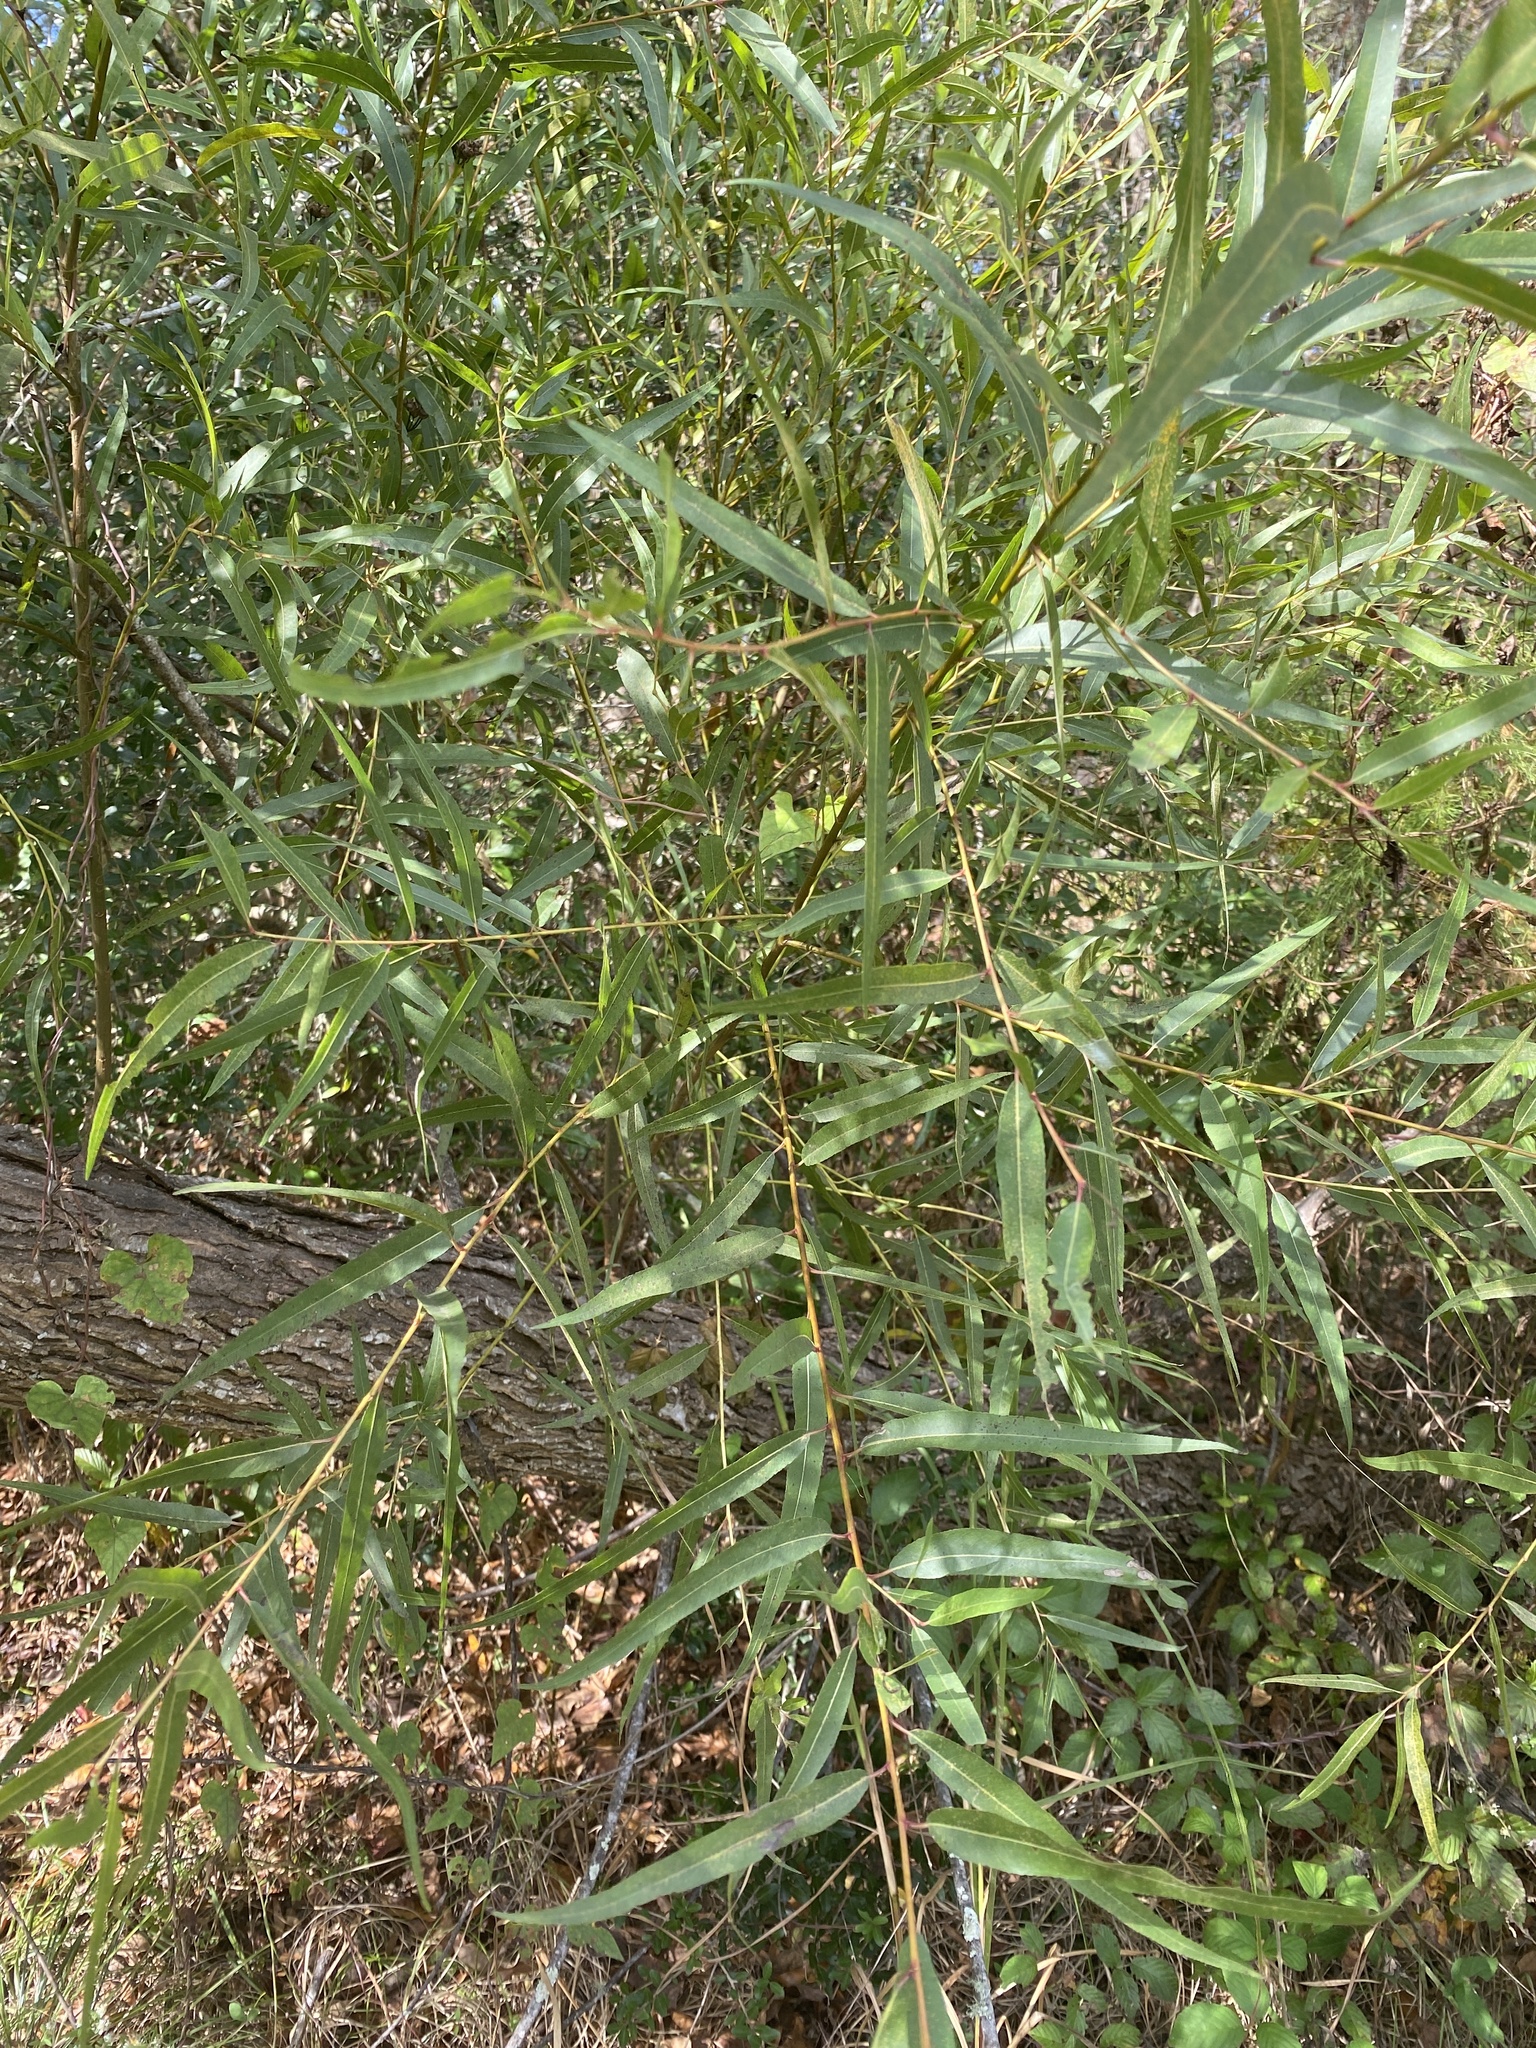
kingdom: Plantae
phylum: Tracheophyta
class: Magnoliopsida
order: Malpighiales
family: Salicaceae
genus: Salix
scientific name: Salix nigra
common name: Black willow
